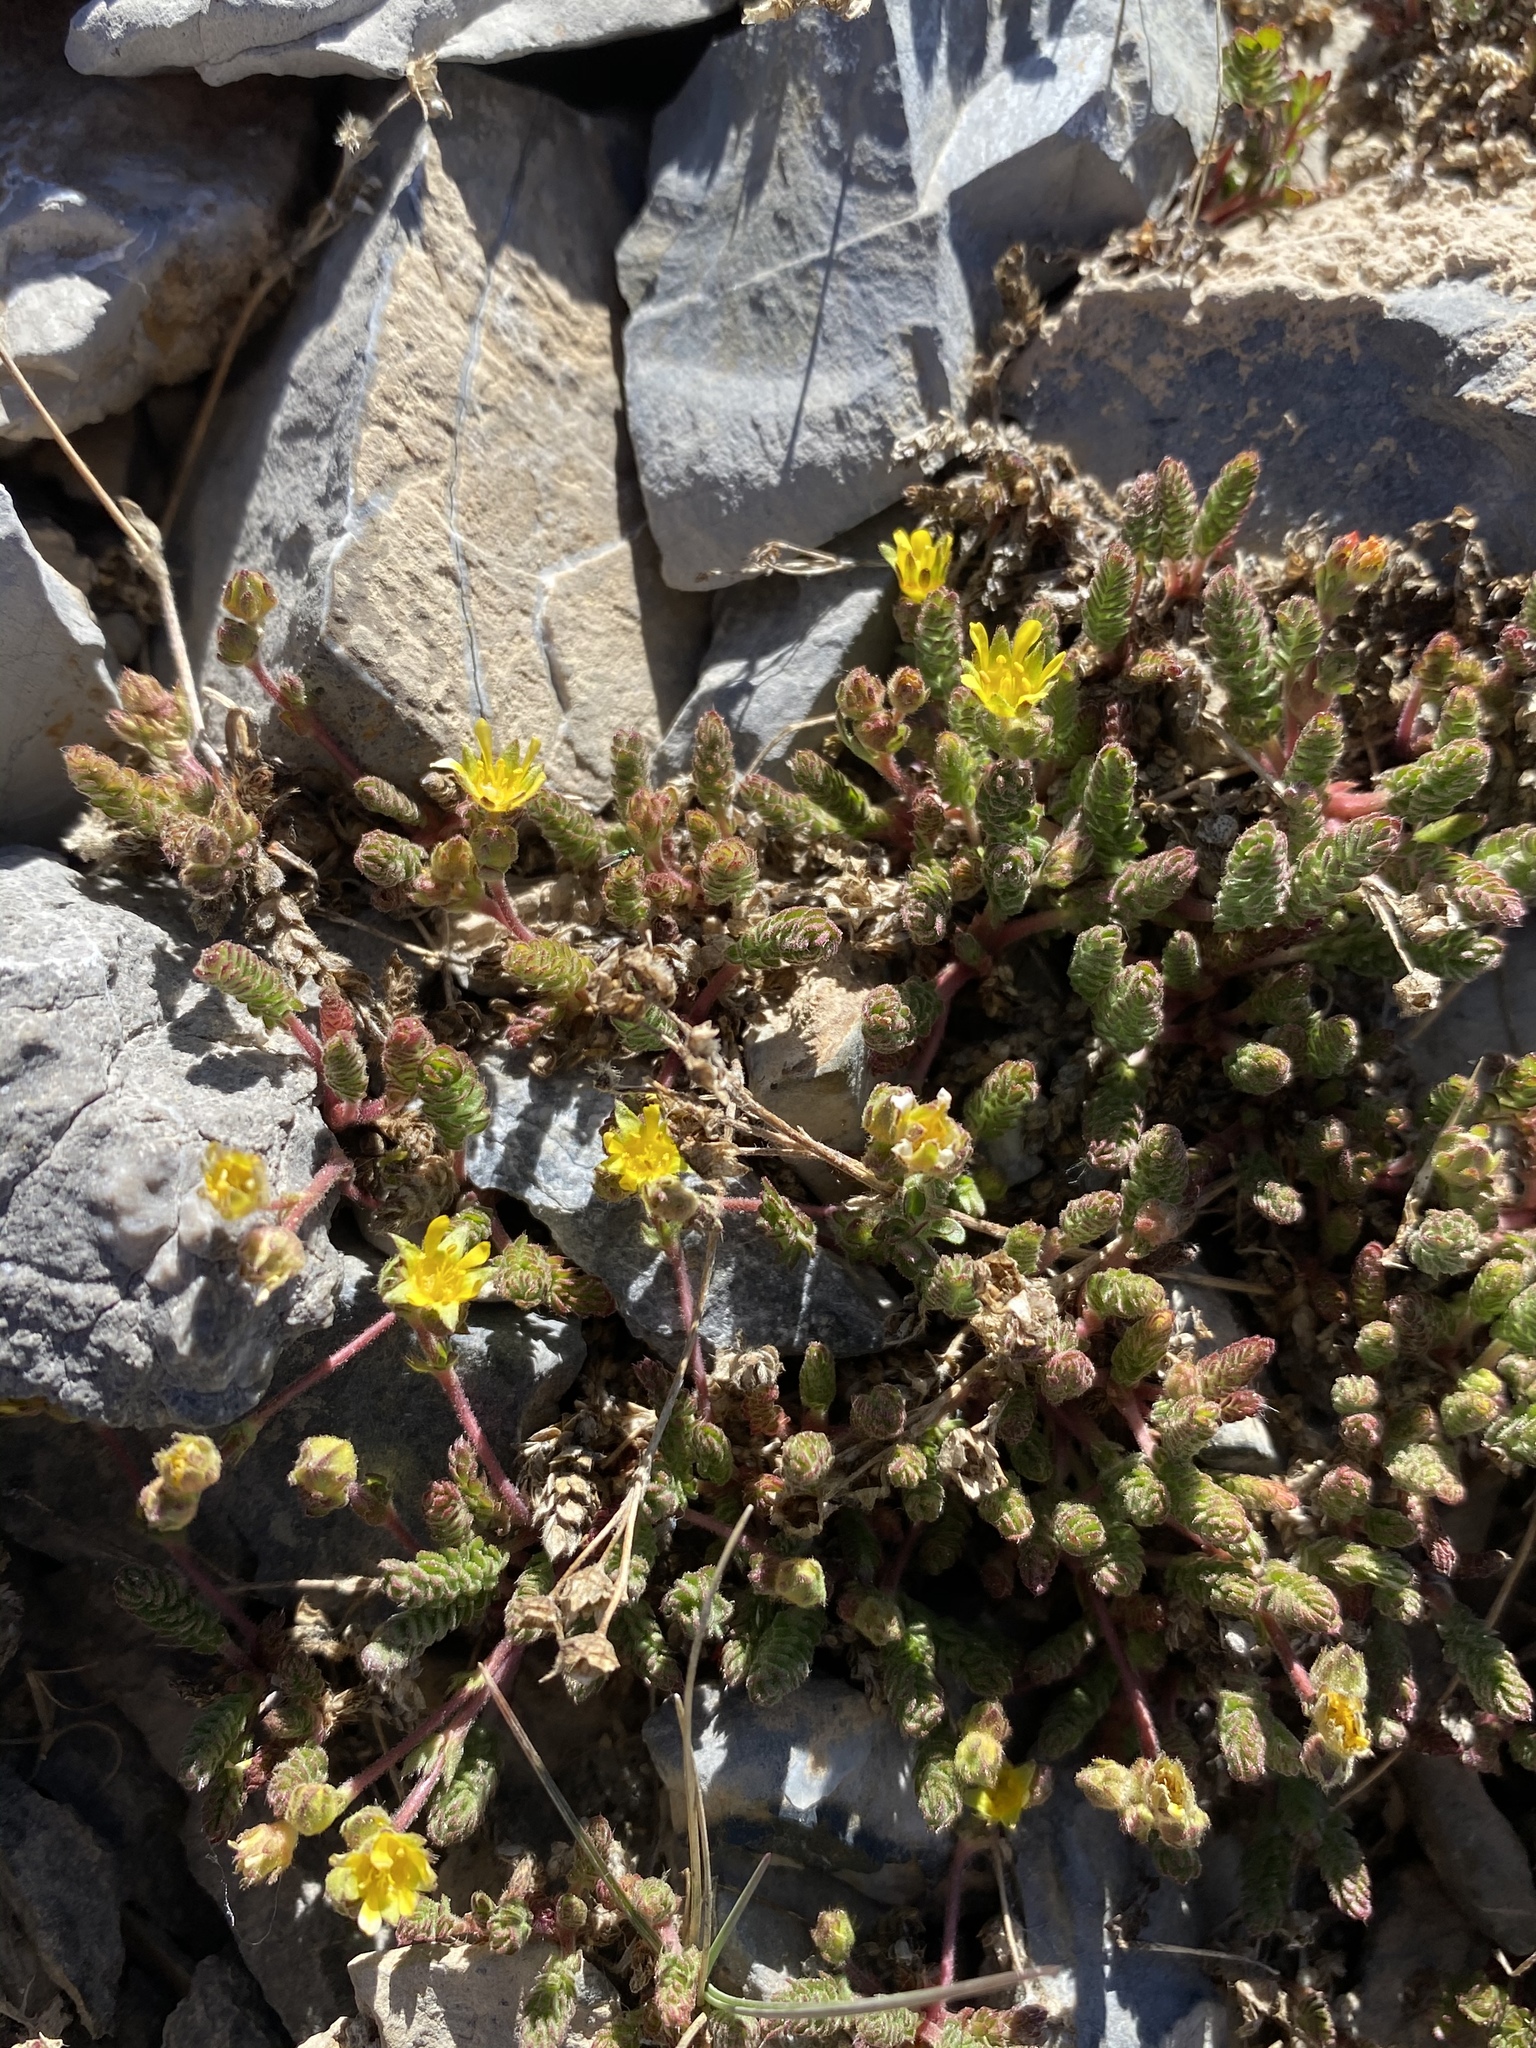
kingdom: Plantae
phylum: Tracheophyta
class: Magnoliopsida
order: Rosales
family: Rosaceae
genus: Potentilla
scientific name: Potentilla cryptocaulis
